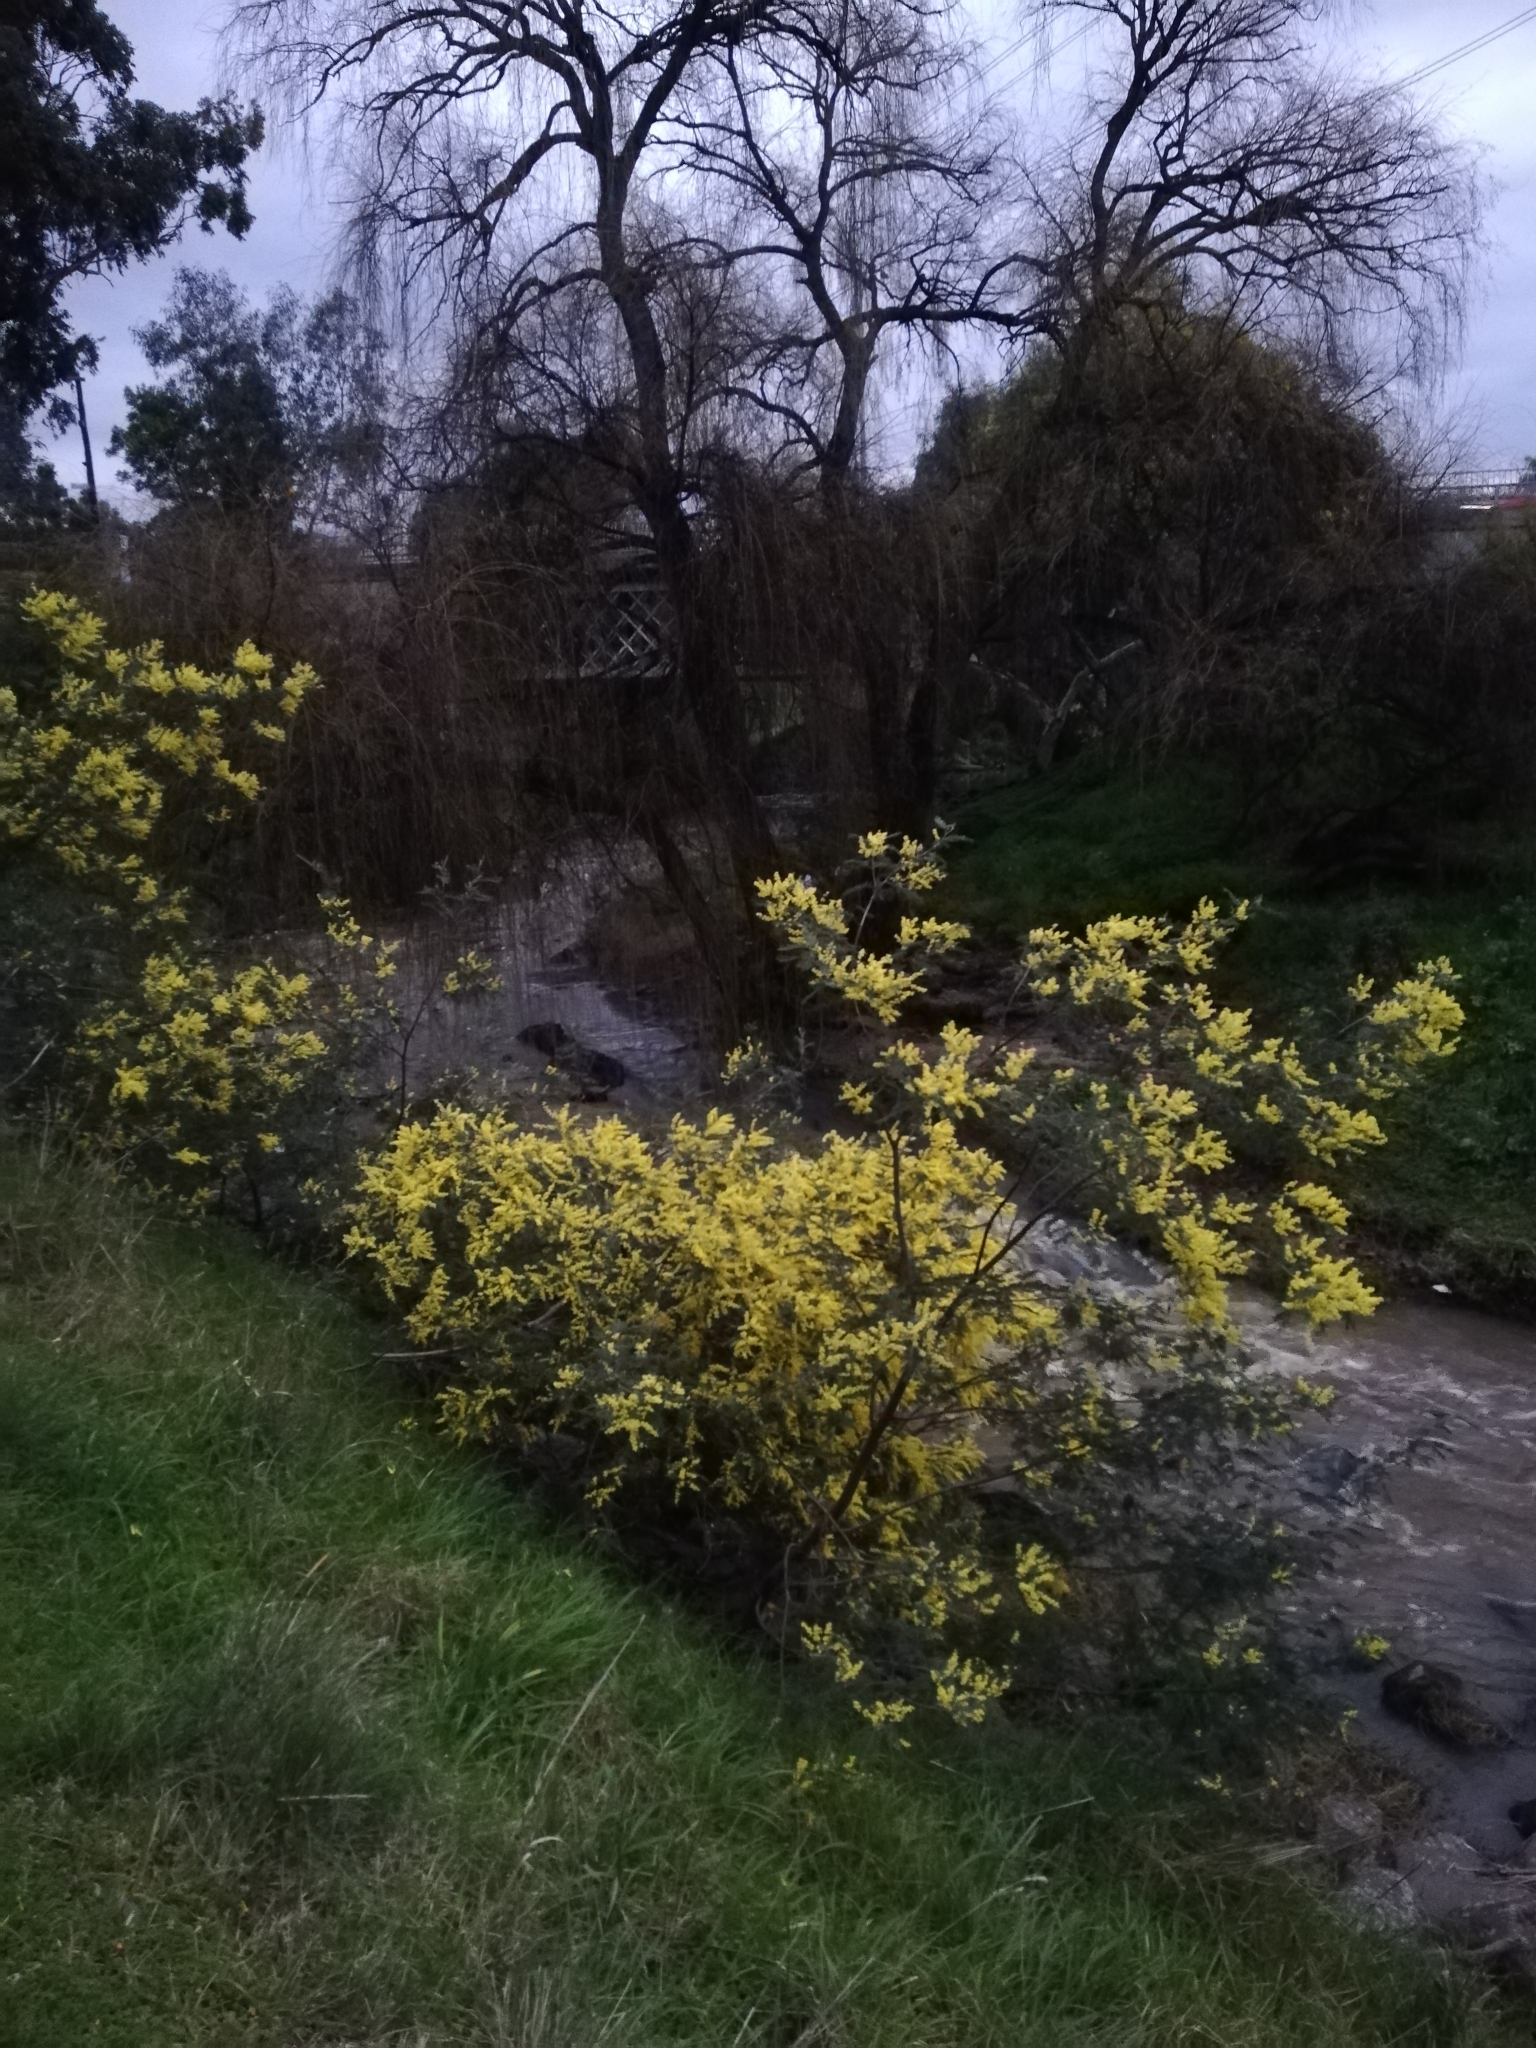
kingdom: Plantae
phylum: Tracheophyta
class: Magnoliopsida
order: Fabales
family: Fabaceae
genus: Acacia
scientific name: Acacia dealbata
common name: Silver wattle
